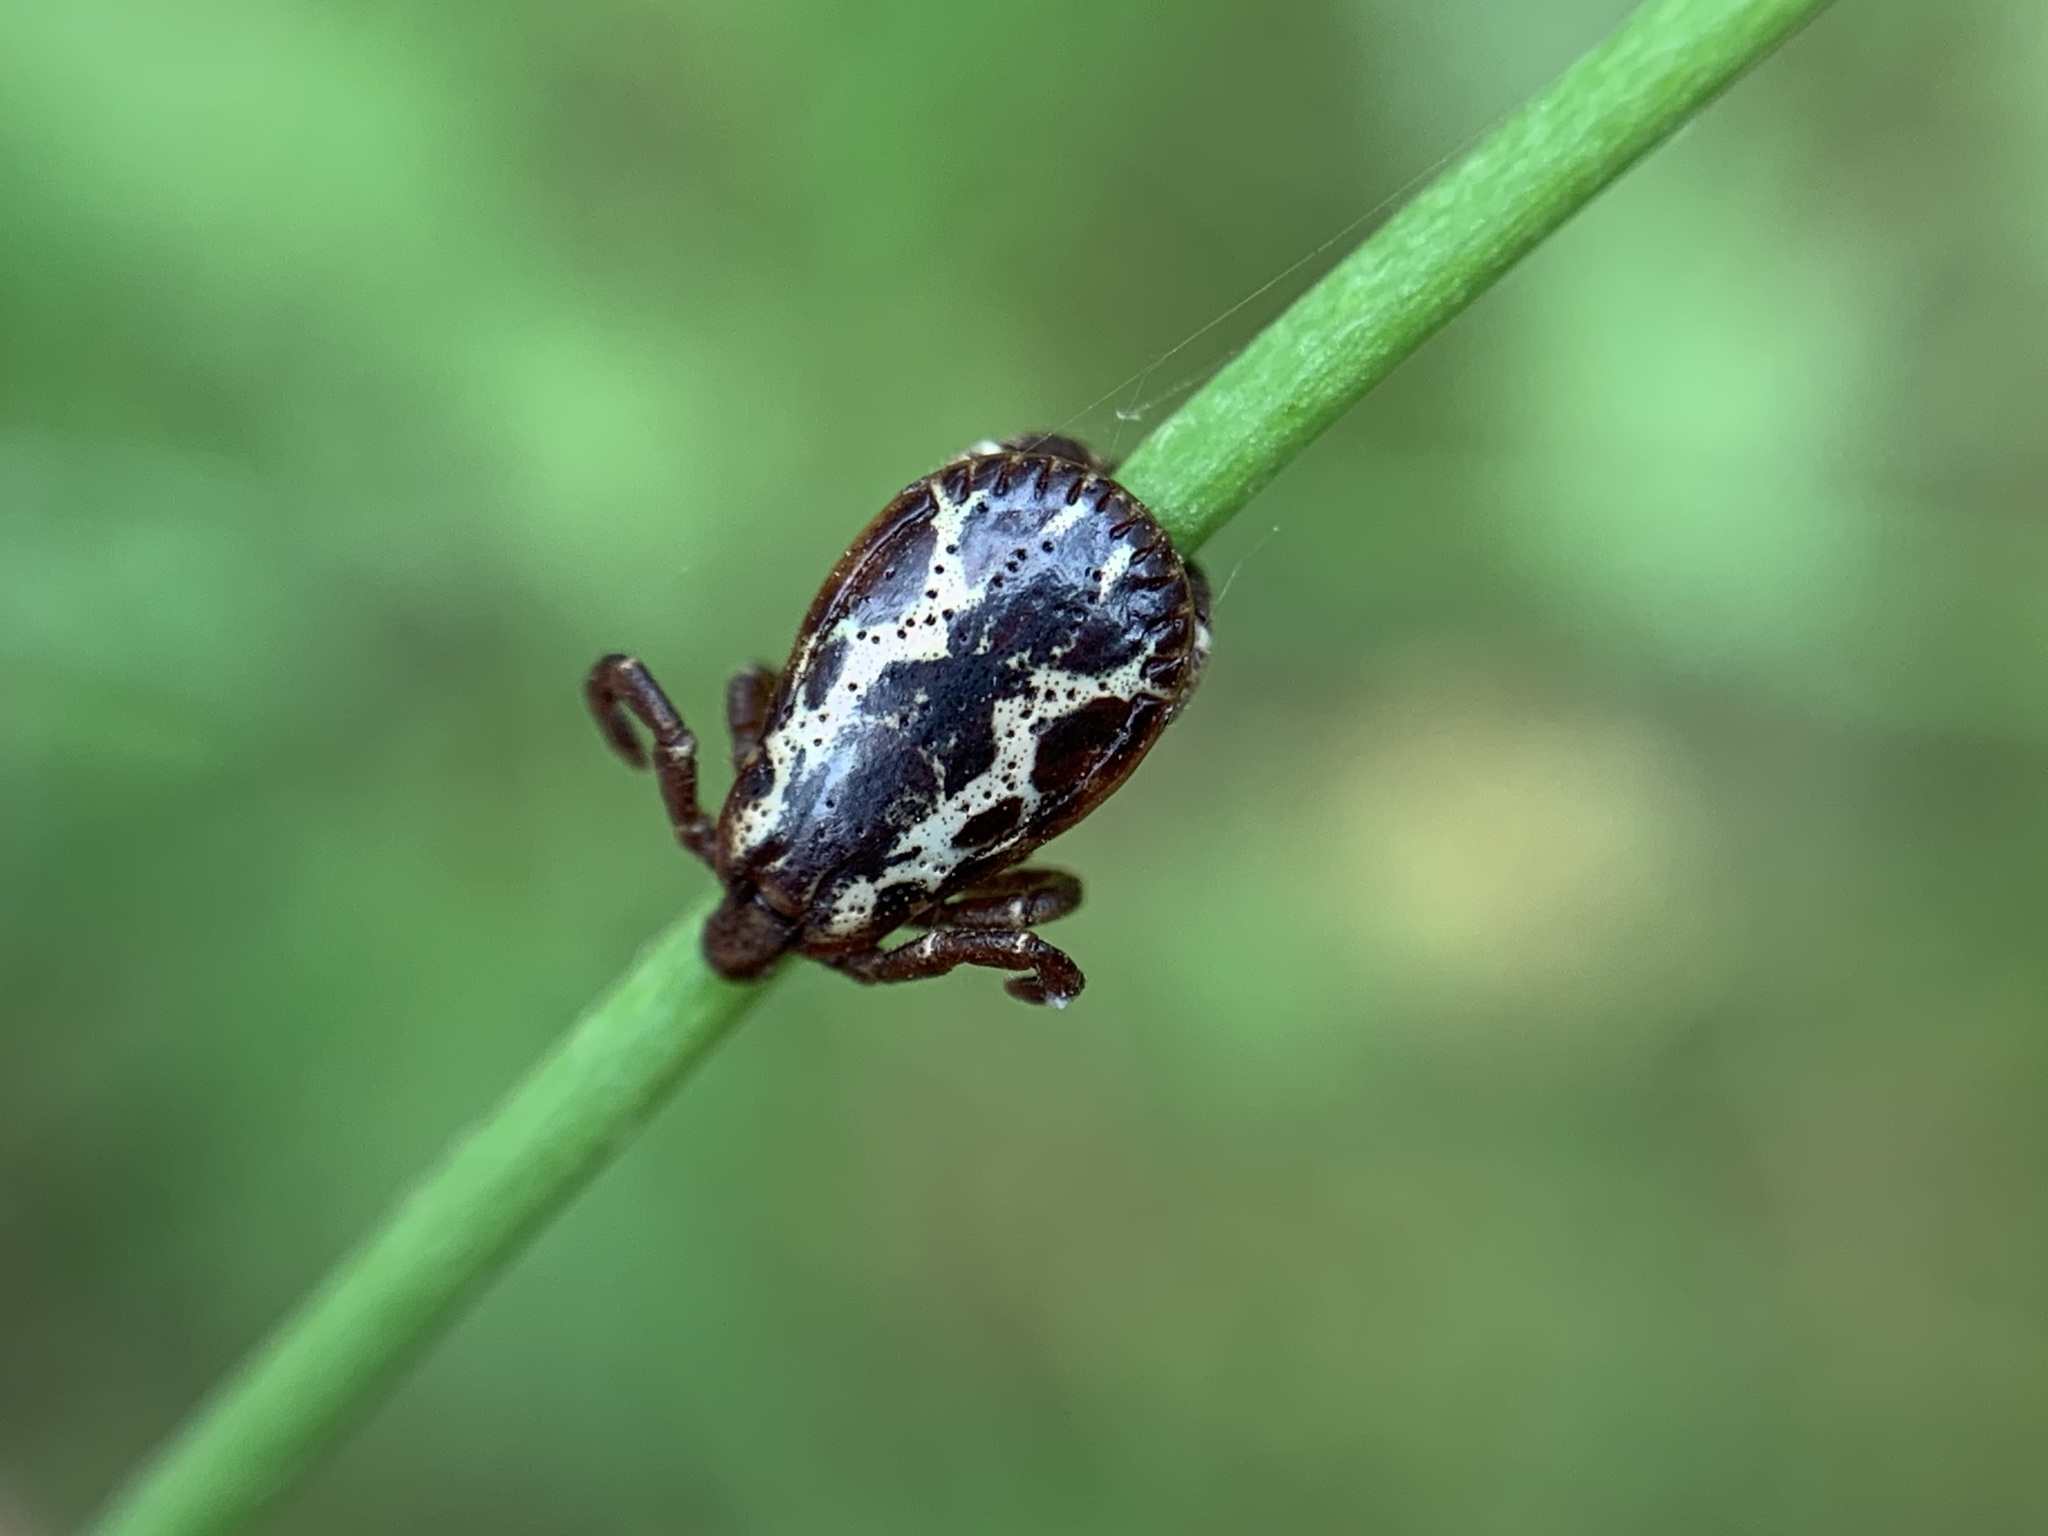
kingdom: Animalia
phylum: Arthropoda
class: Arachnida
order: Ixodida
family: Ixodidae
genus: Dermacentor
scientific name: Dermacentor variabilis
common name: American dog tick
